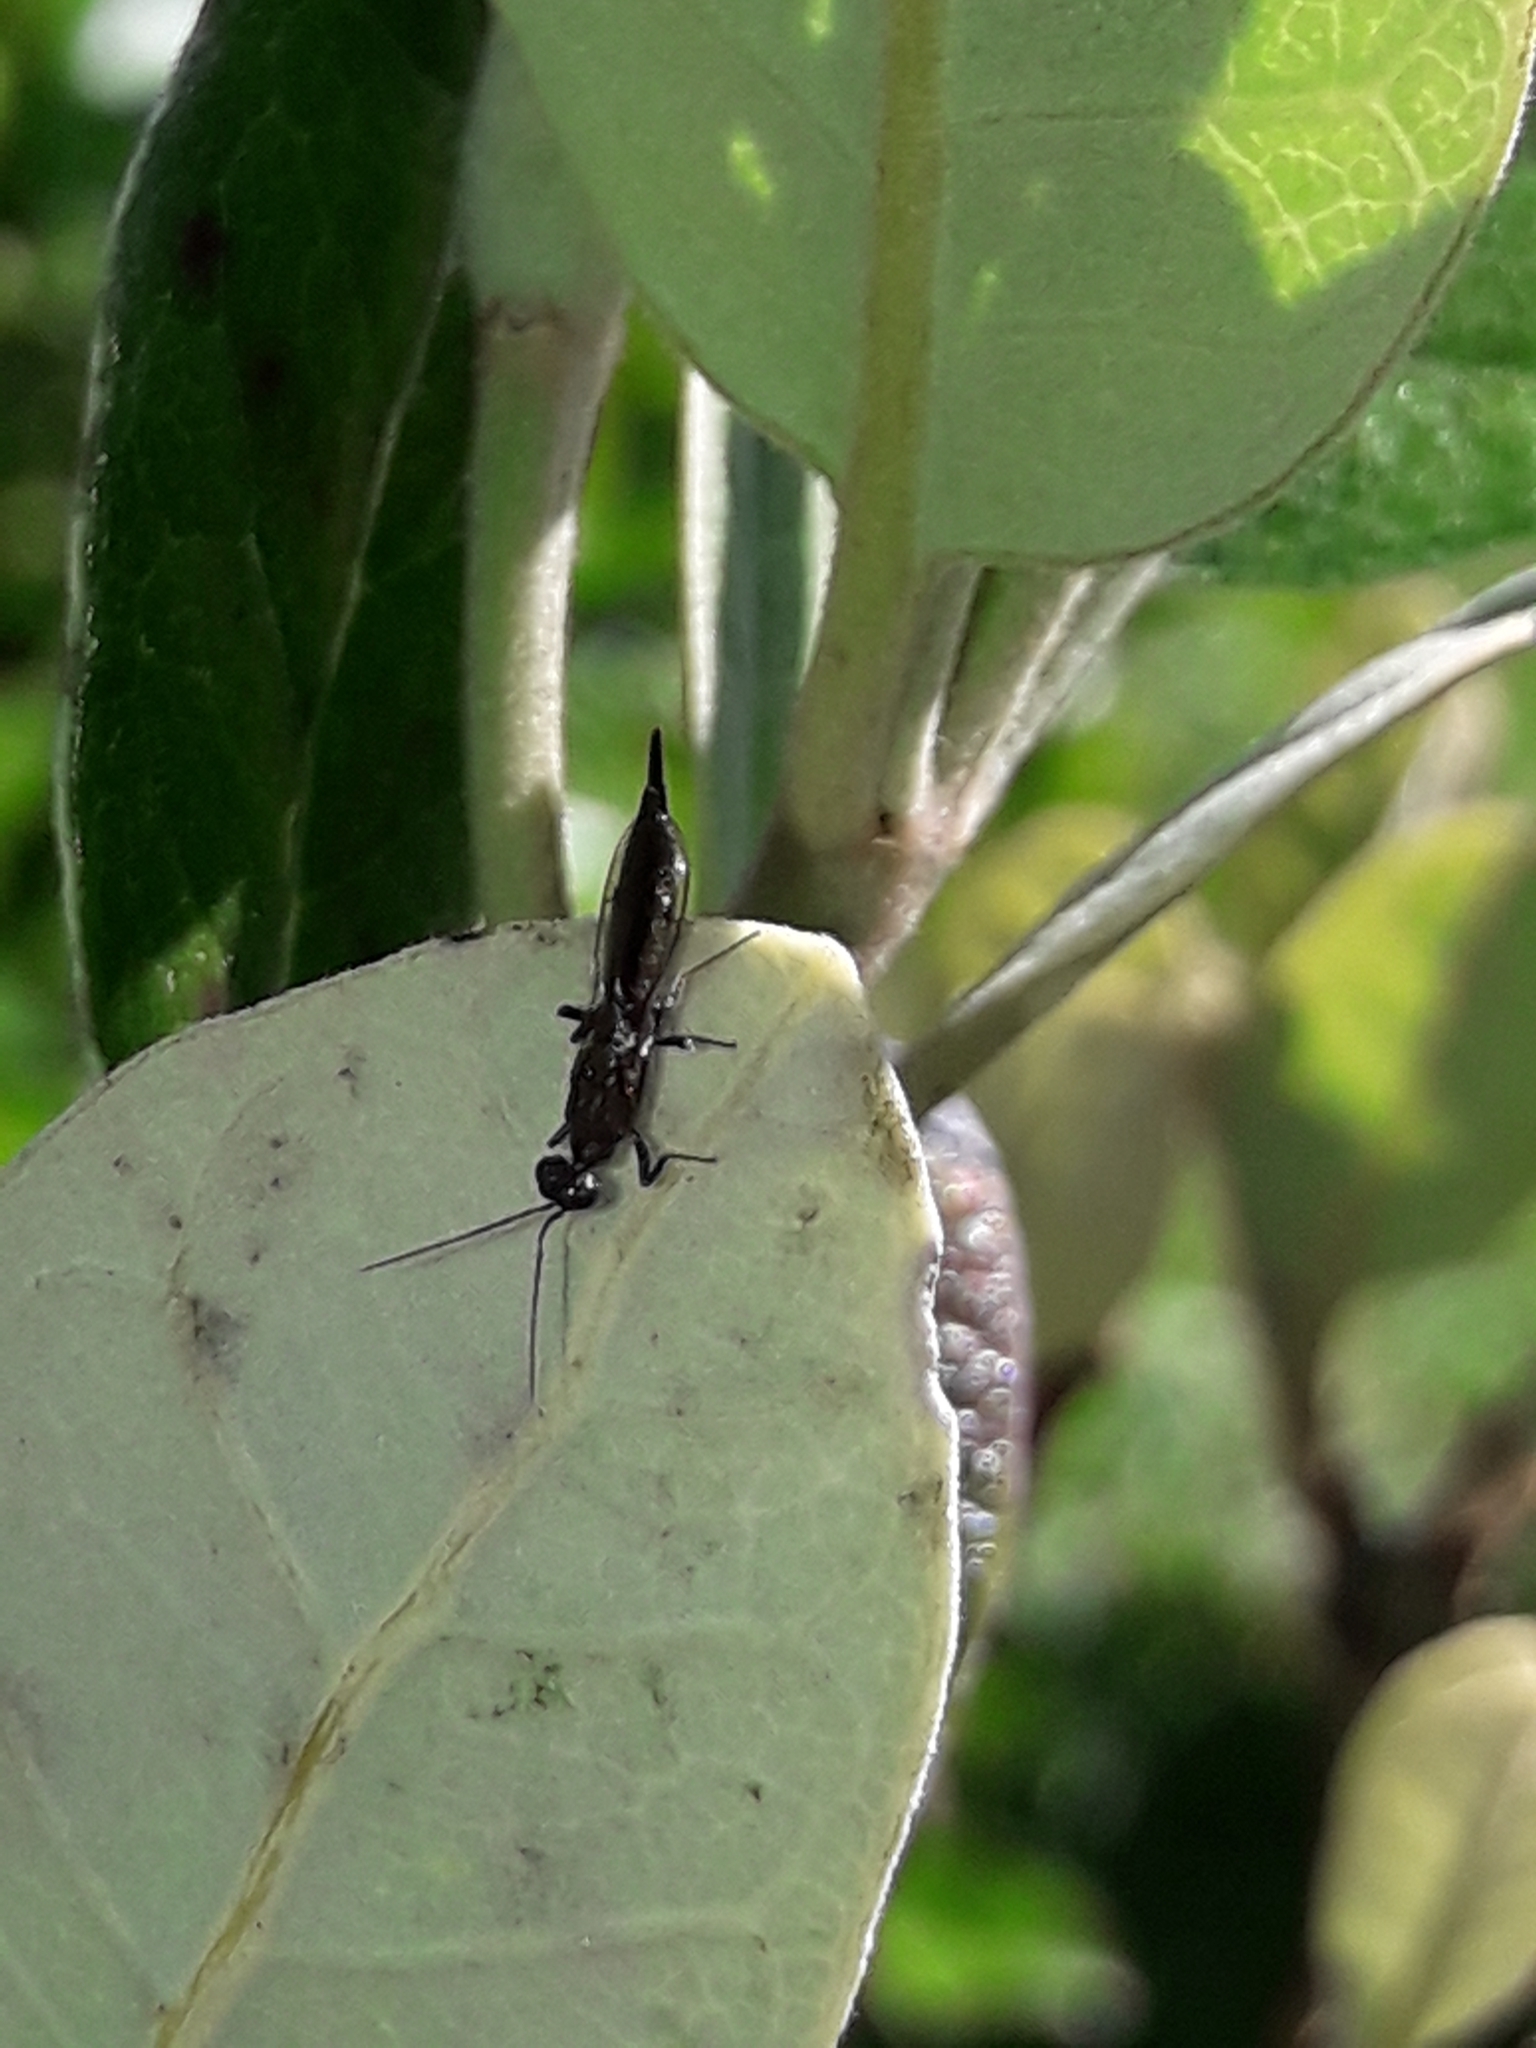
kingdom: Animalia
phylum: Arthropoda
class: Insecta
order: Hymenoptera
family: Eupelmidae
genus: Eusandalum
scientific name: Eusandalum barteli
